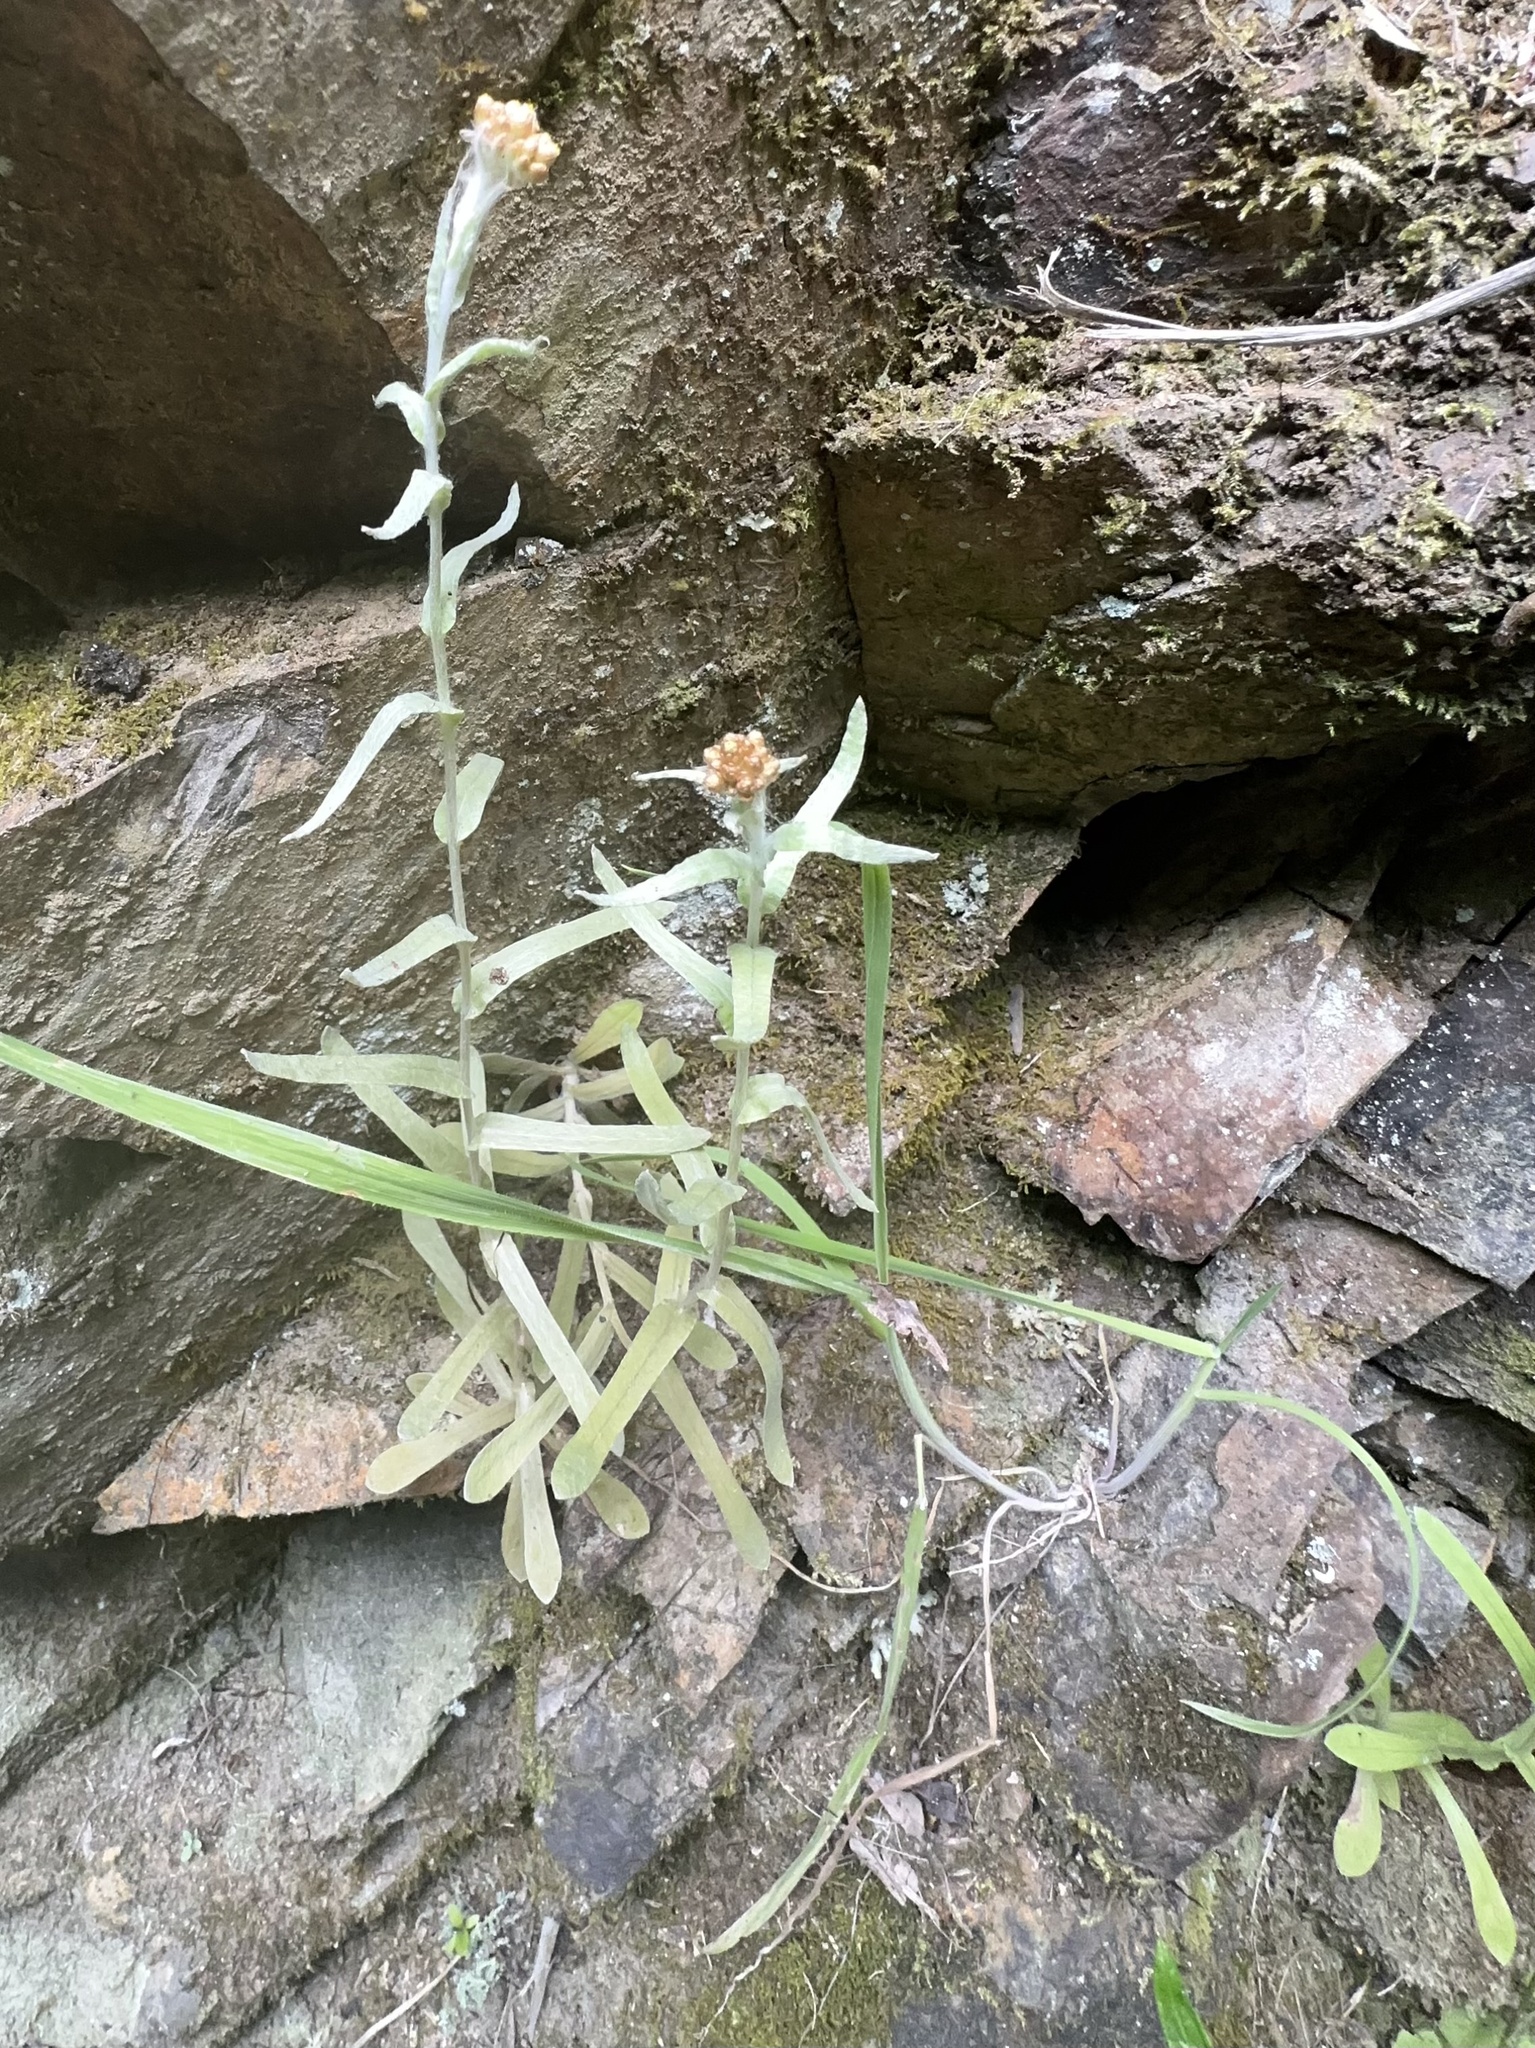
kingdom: Plantae
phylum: Tracheophyta
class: Magnoliopsida
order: Asterales
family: Asteraceae
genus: Pseudognaphalium
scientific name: Pseudognaphalium
